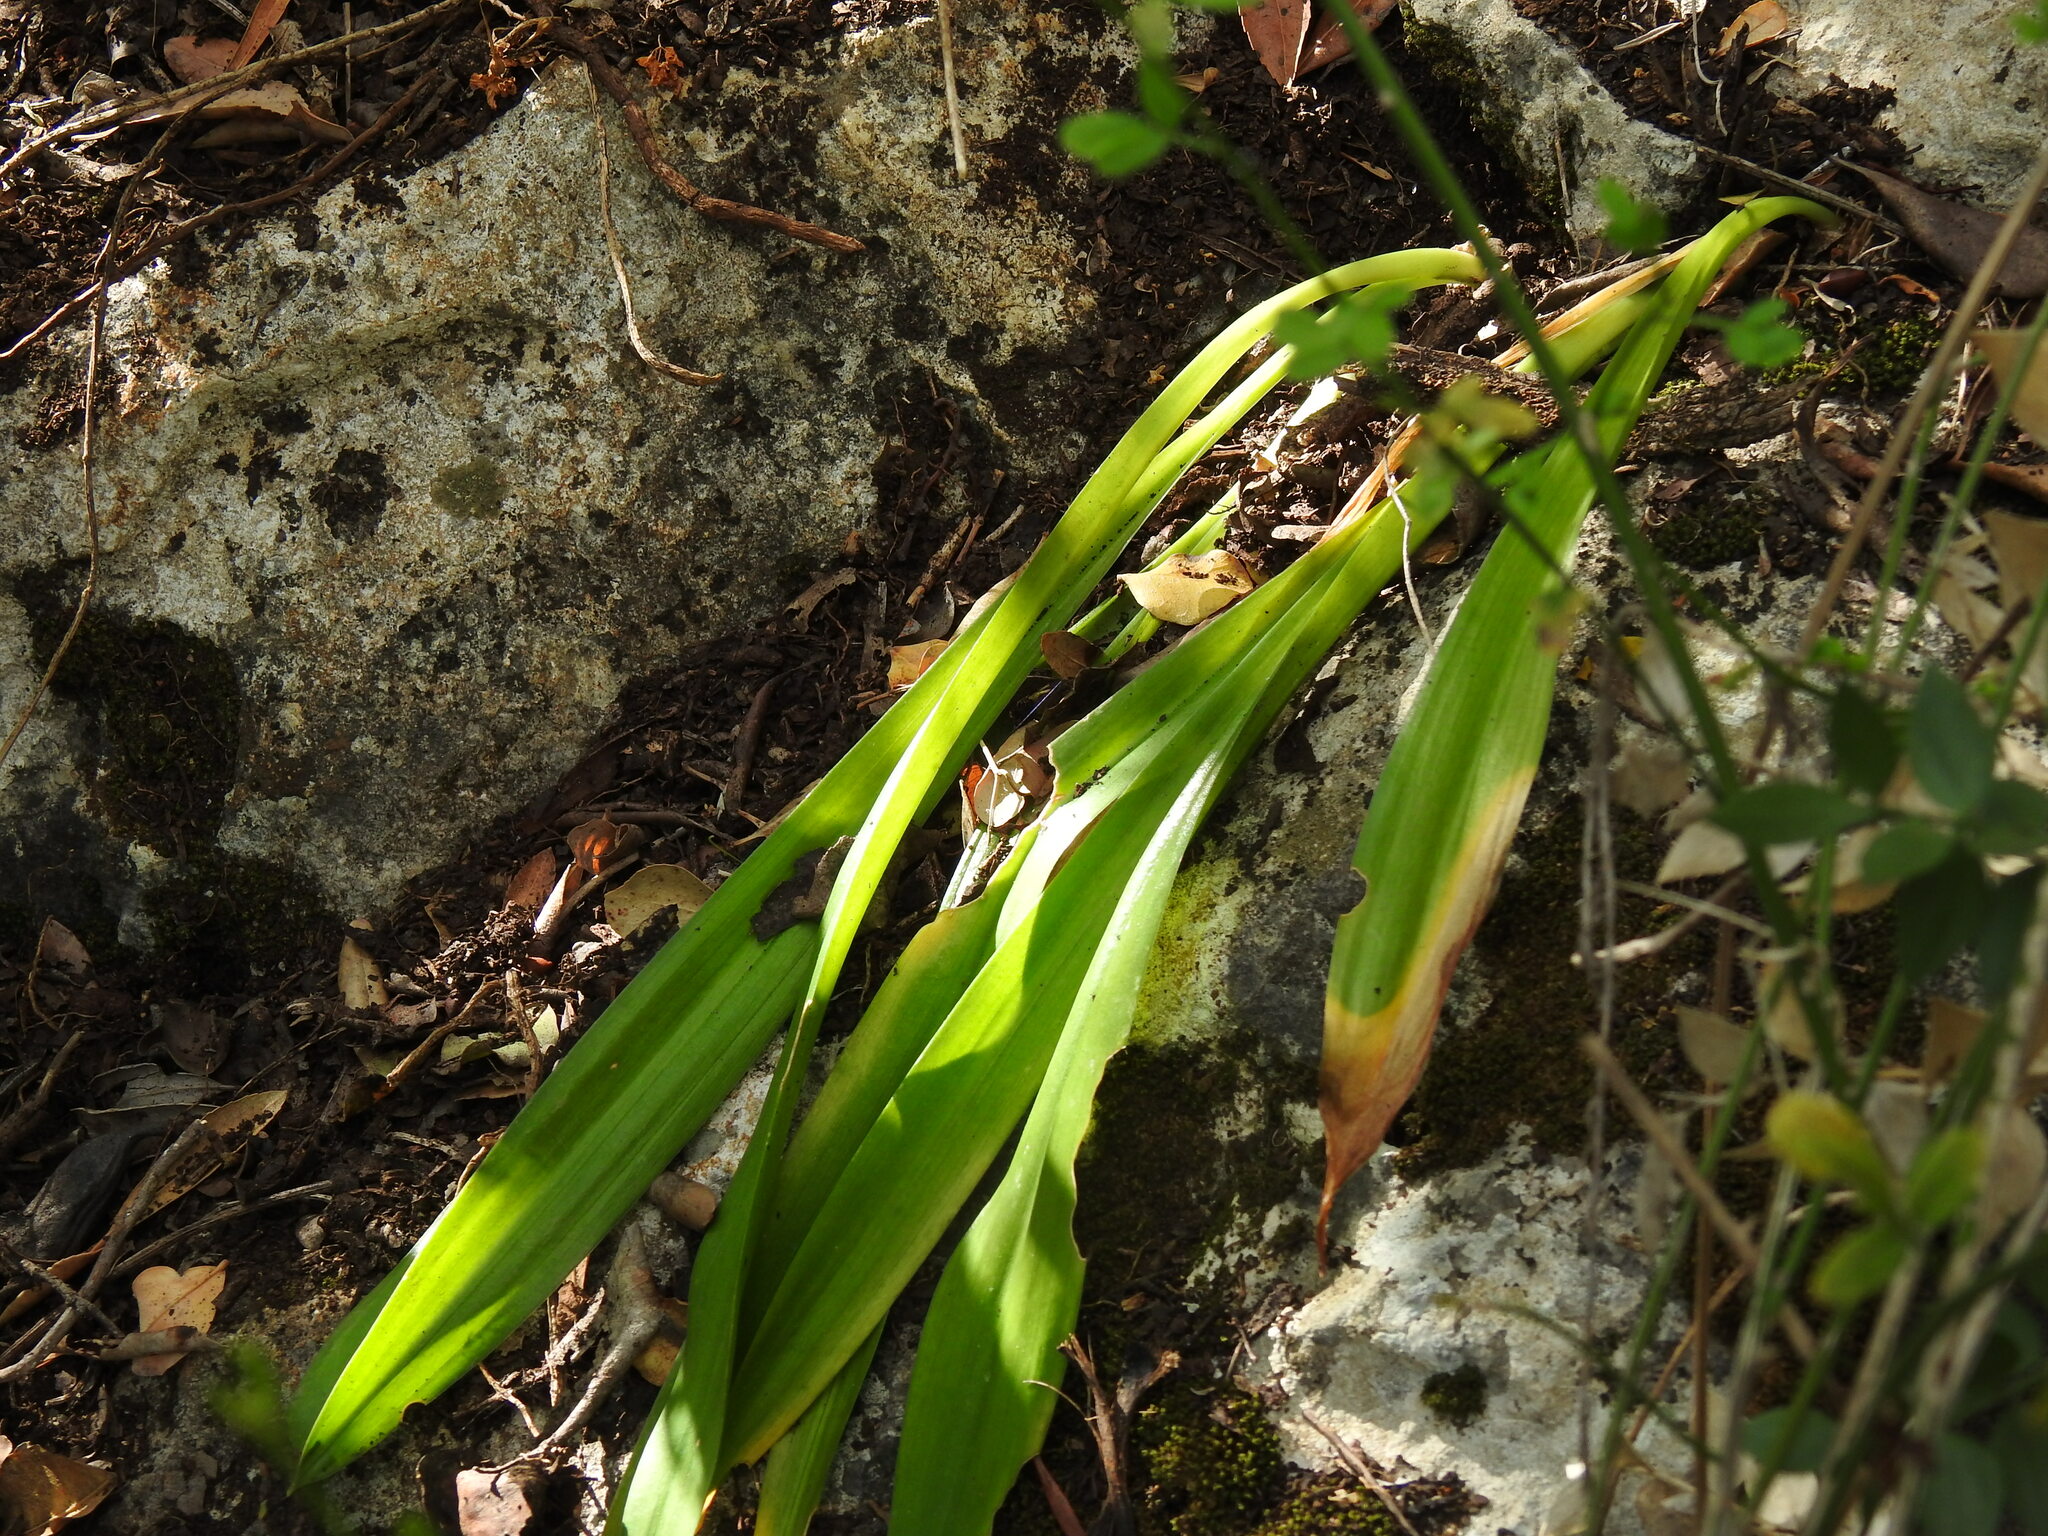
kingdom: Plantae
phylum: Tracheophyta
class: Liliopsida
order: Asparagales
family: Asparagaceae
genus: Drimia
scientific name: Drimia maritima
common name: Maritime squill
